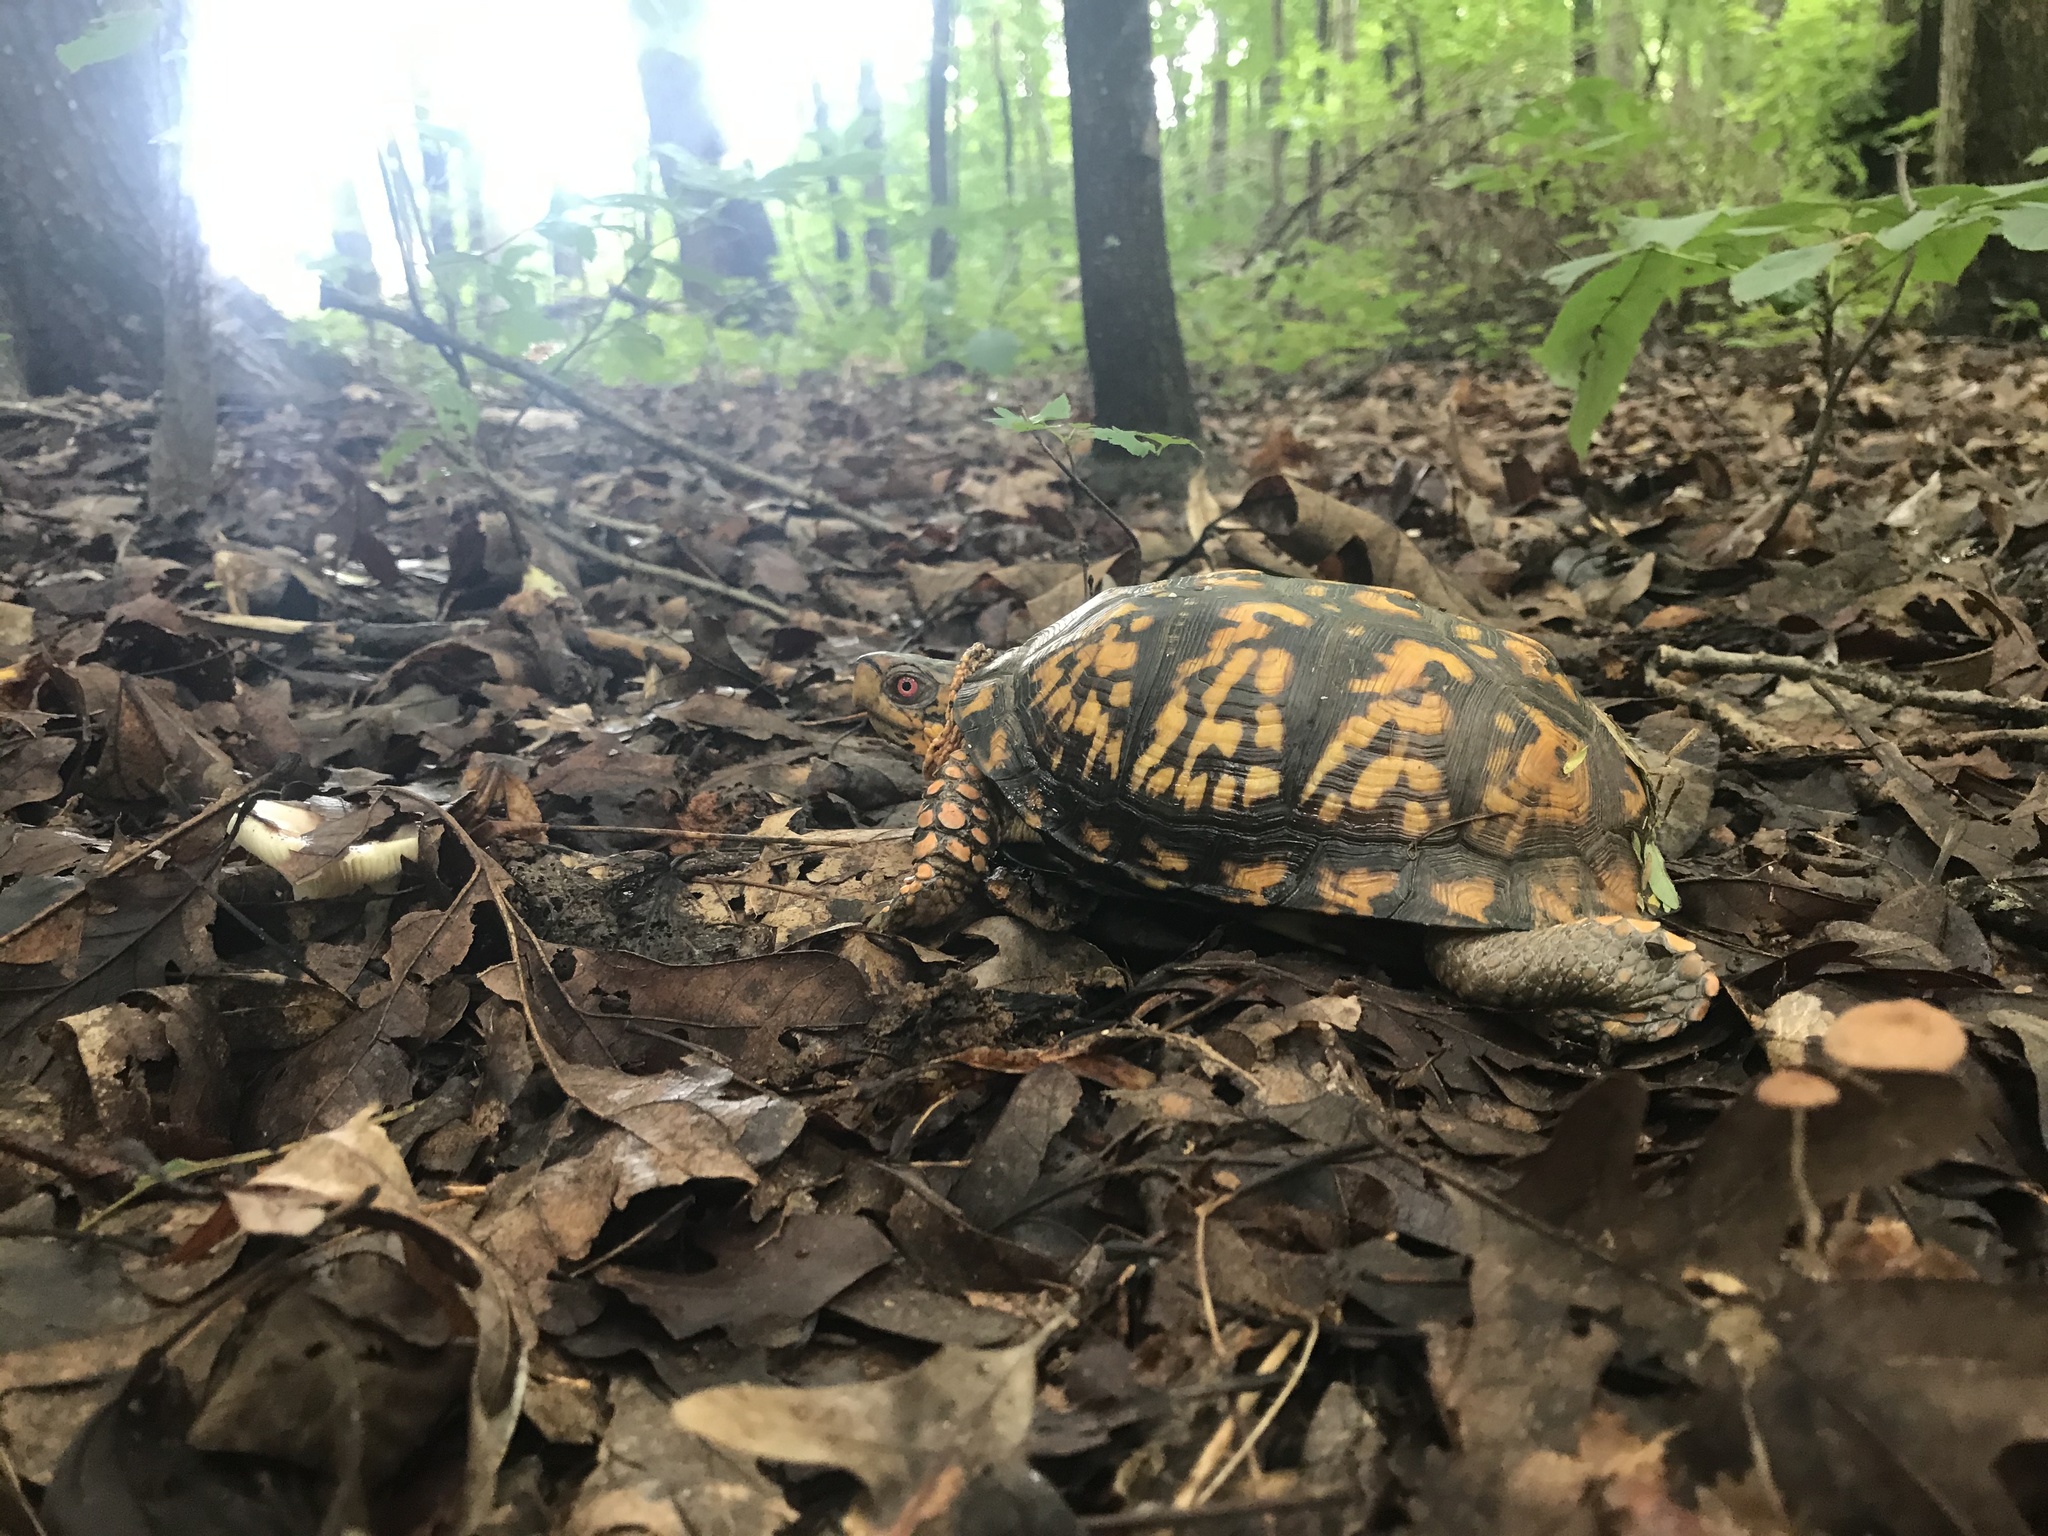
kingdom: Animalia
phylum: Chordata
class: Testudines
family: Emydidae
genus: Terrapene
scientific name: Terrapene carolina
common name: Common box turtle
